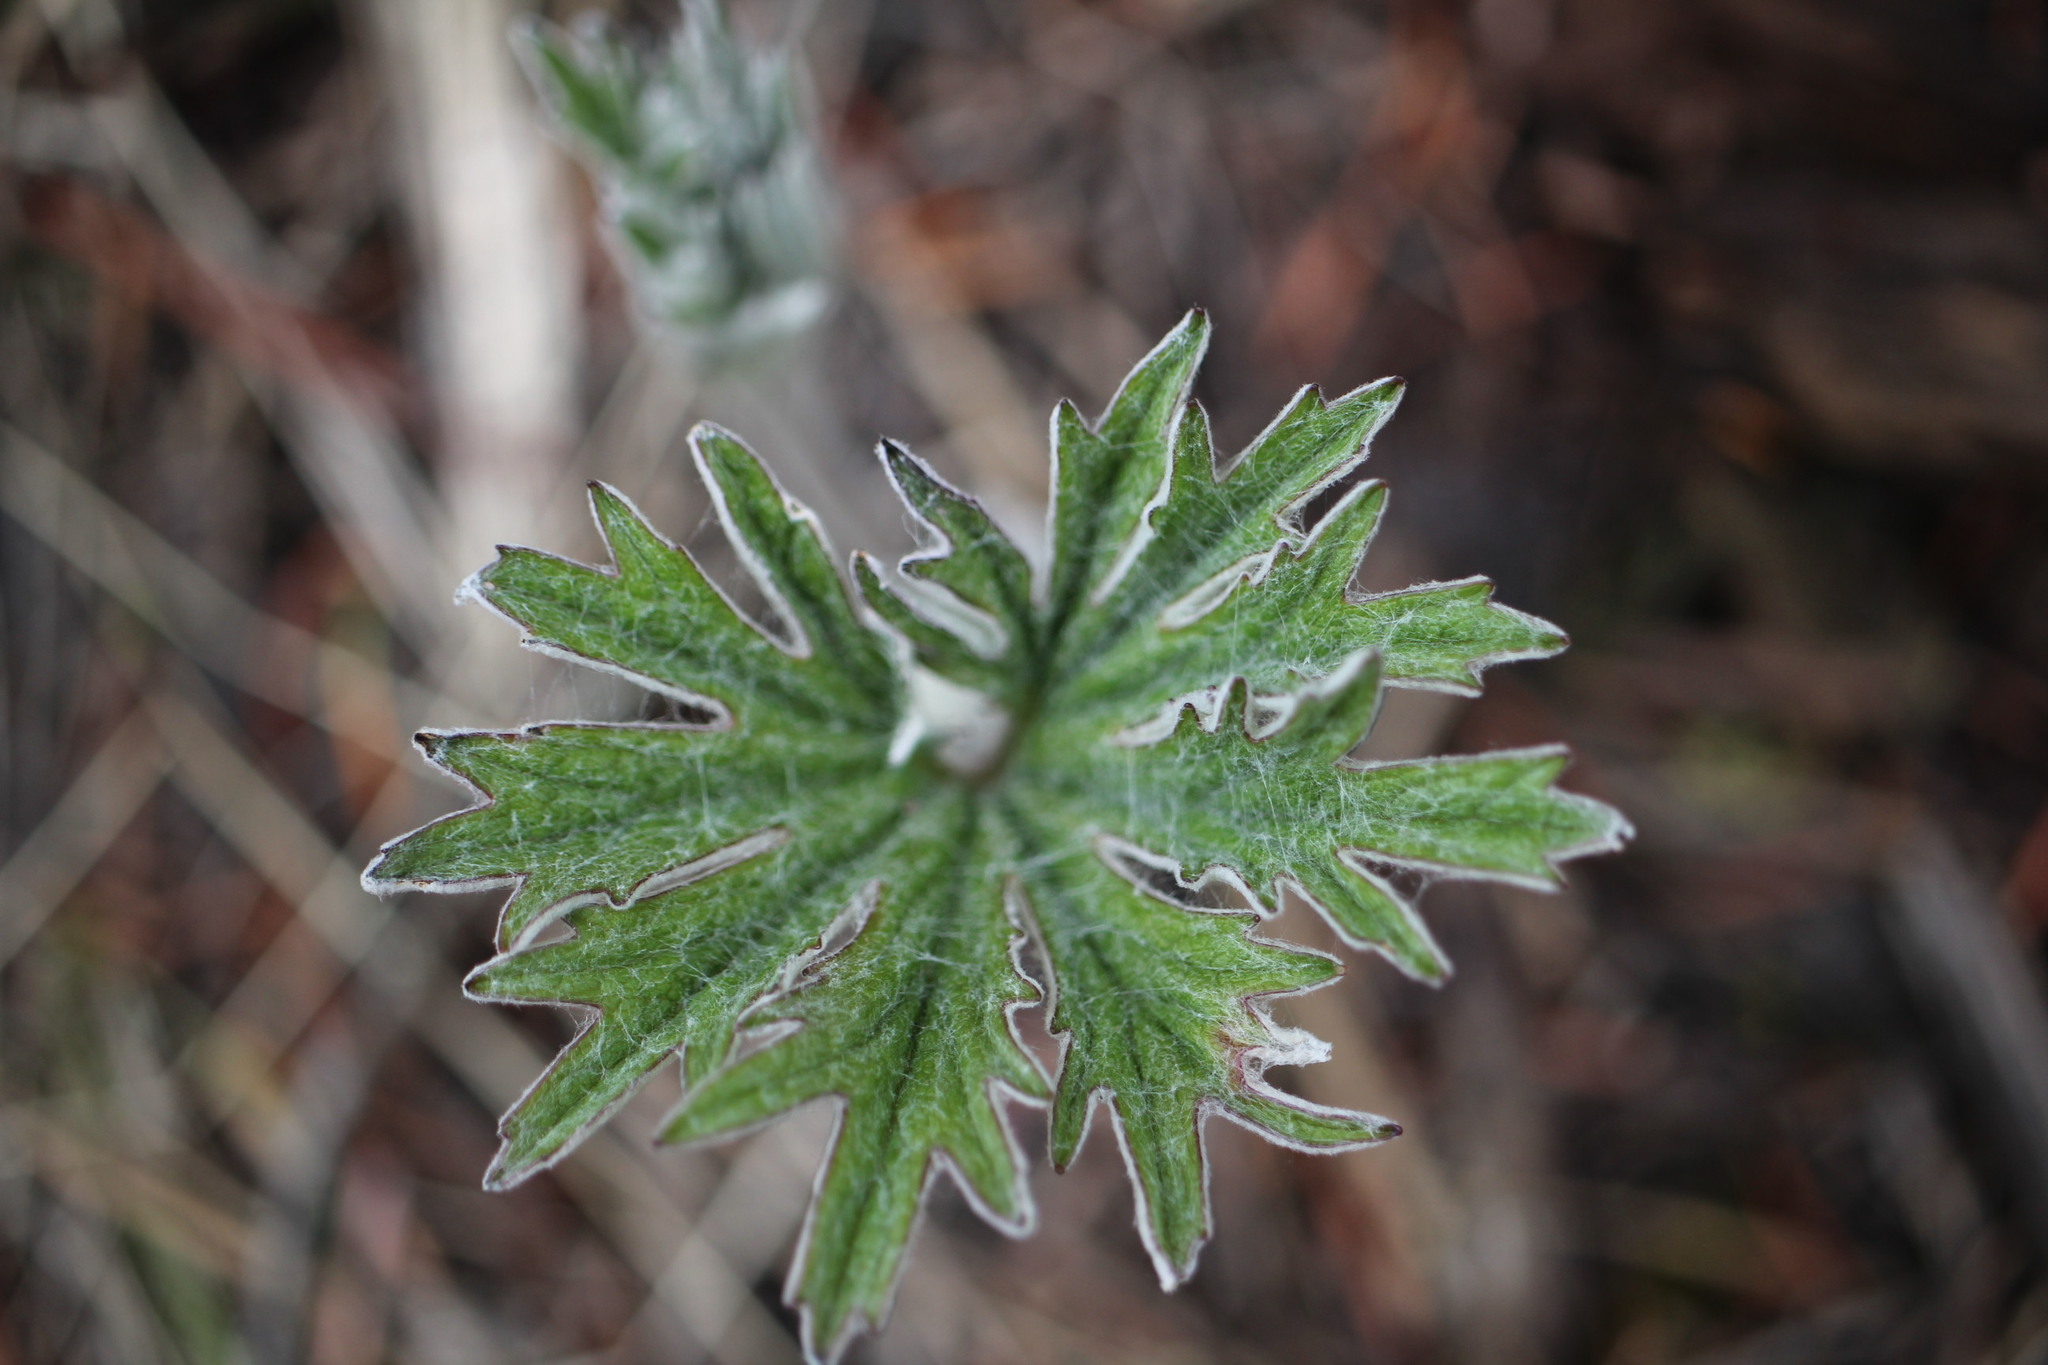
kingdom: Plantae
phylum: Tracheophyta
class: Magnoliopsida
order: Asterales
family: Asteraceae
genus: Cacaliopsis
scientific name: Cacaliopsis nardosmia
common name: Silvercrown
